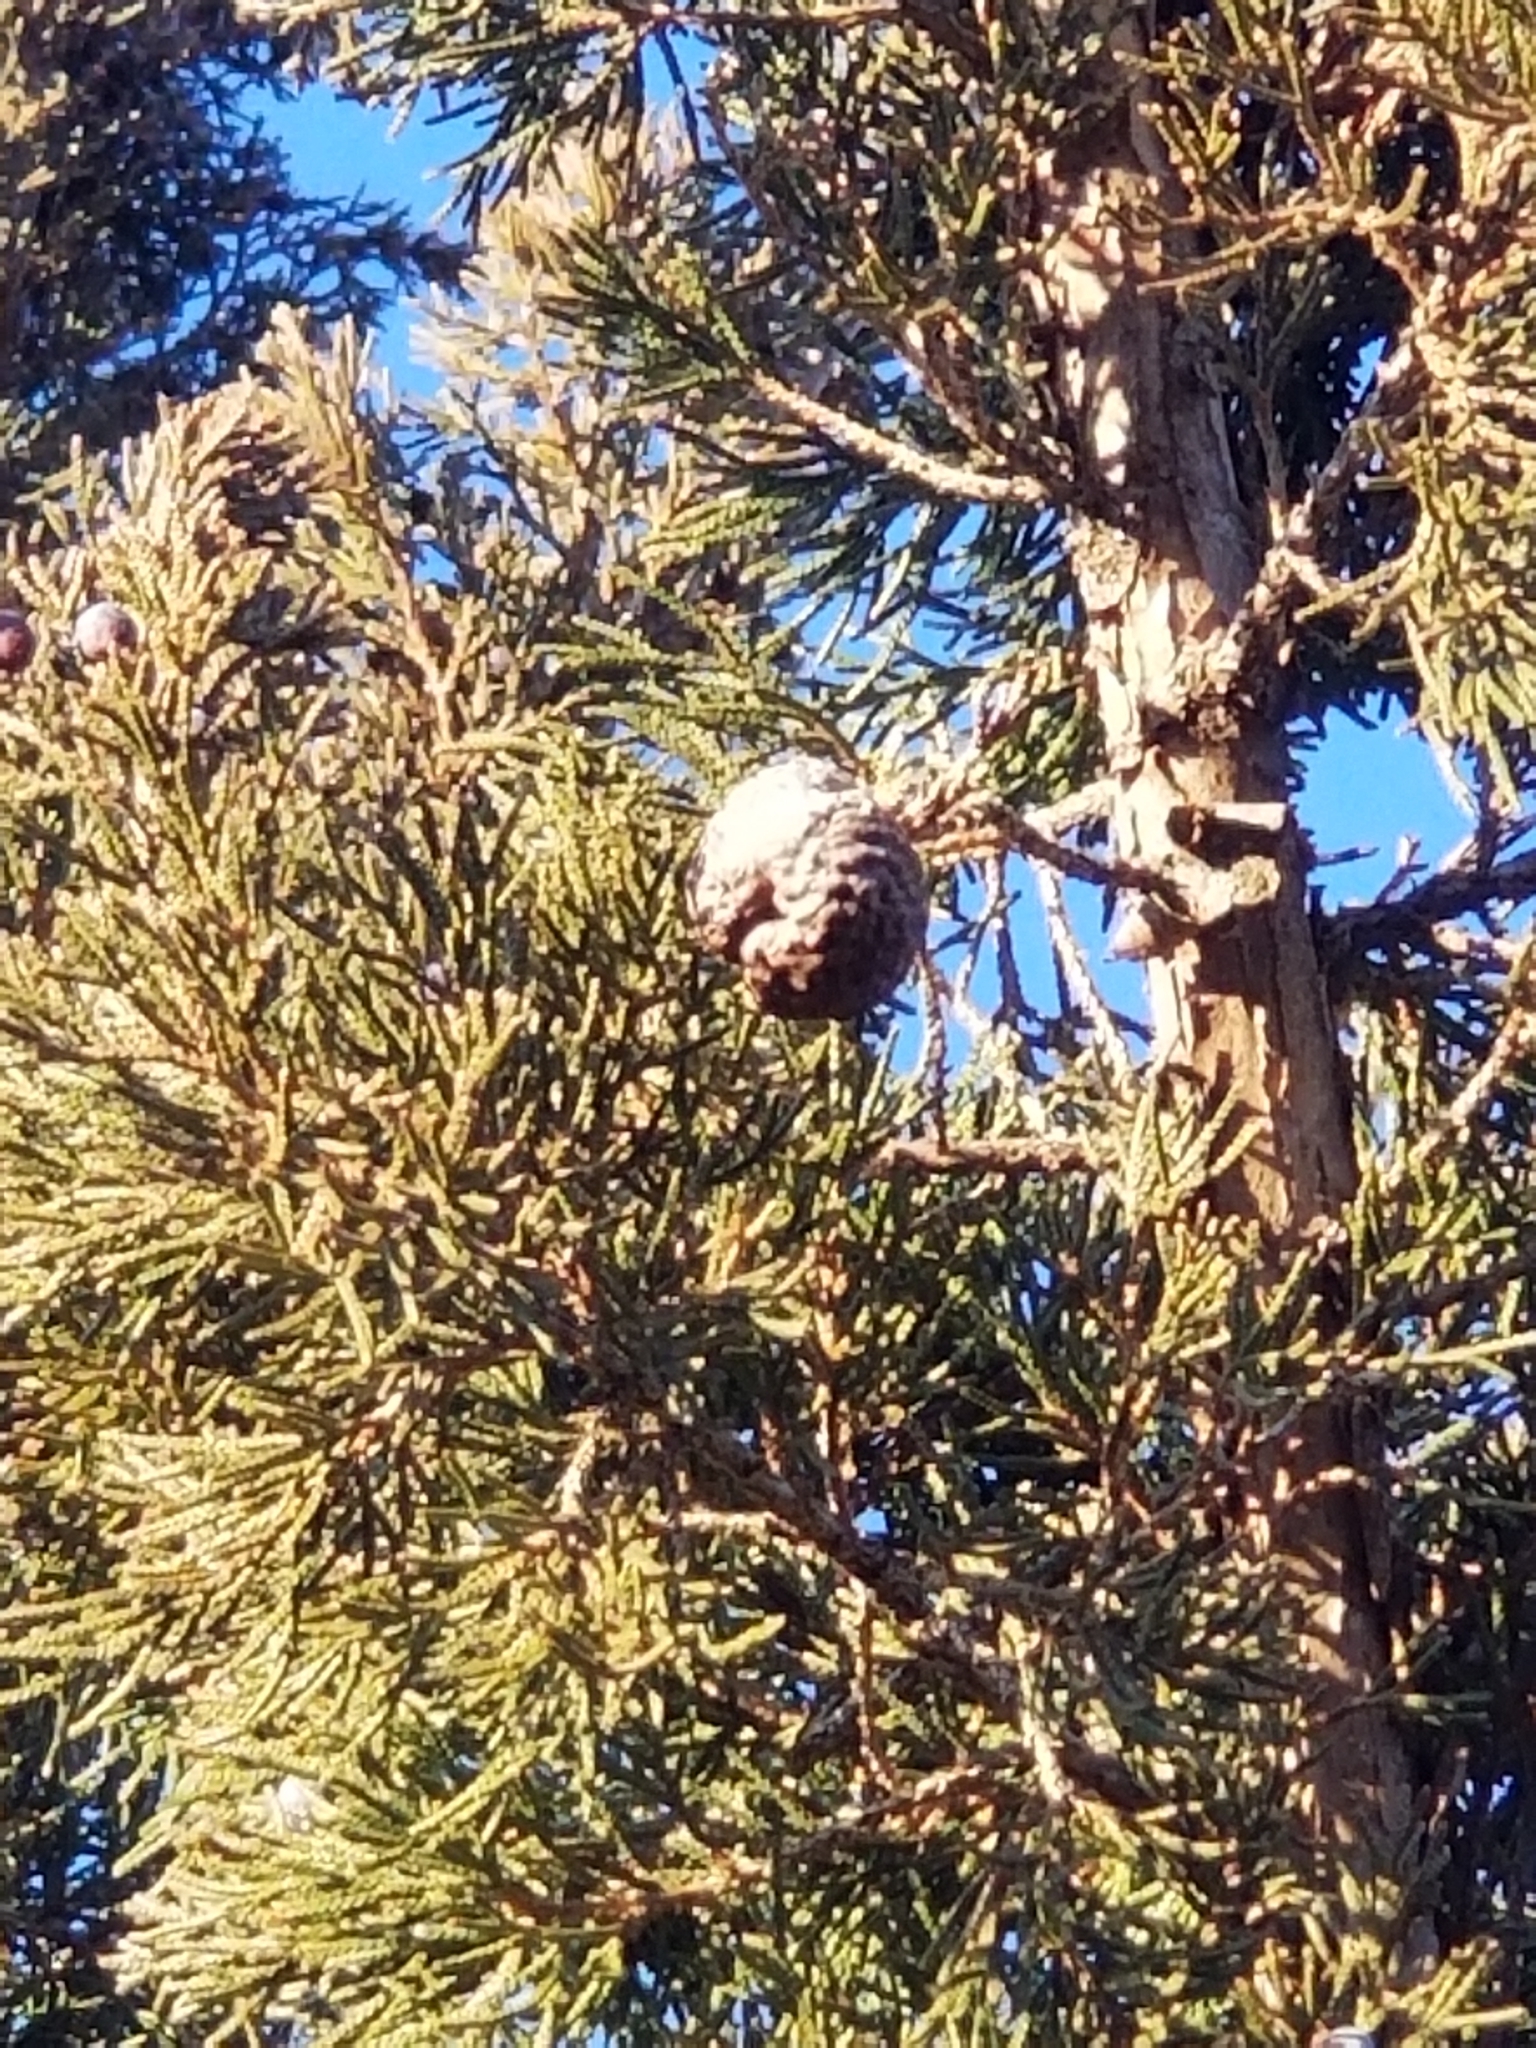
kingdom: Fungi
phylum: Basidiomycota
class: Pucciniomycetes
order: Pucciniales
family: Gymnosporangiaceae
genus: Gymnosporangium
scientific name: Gymnosporangium juniperi-virginianae
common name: Juniper-apple rust
